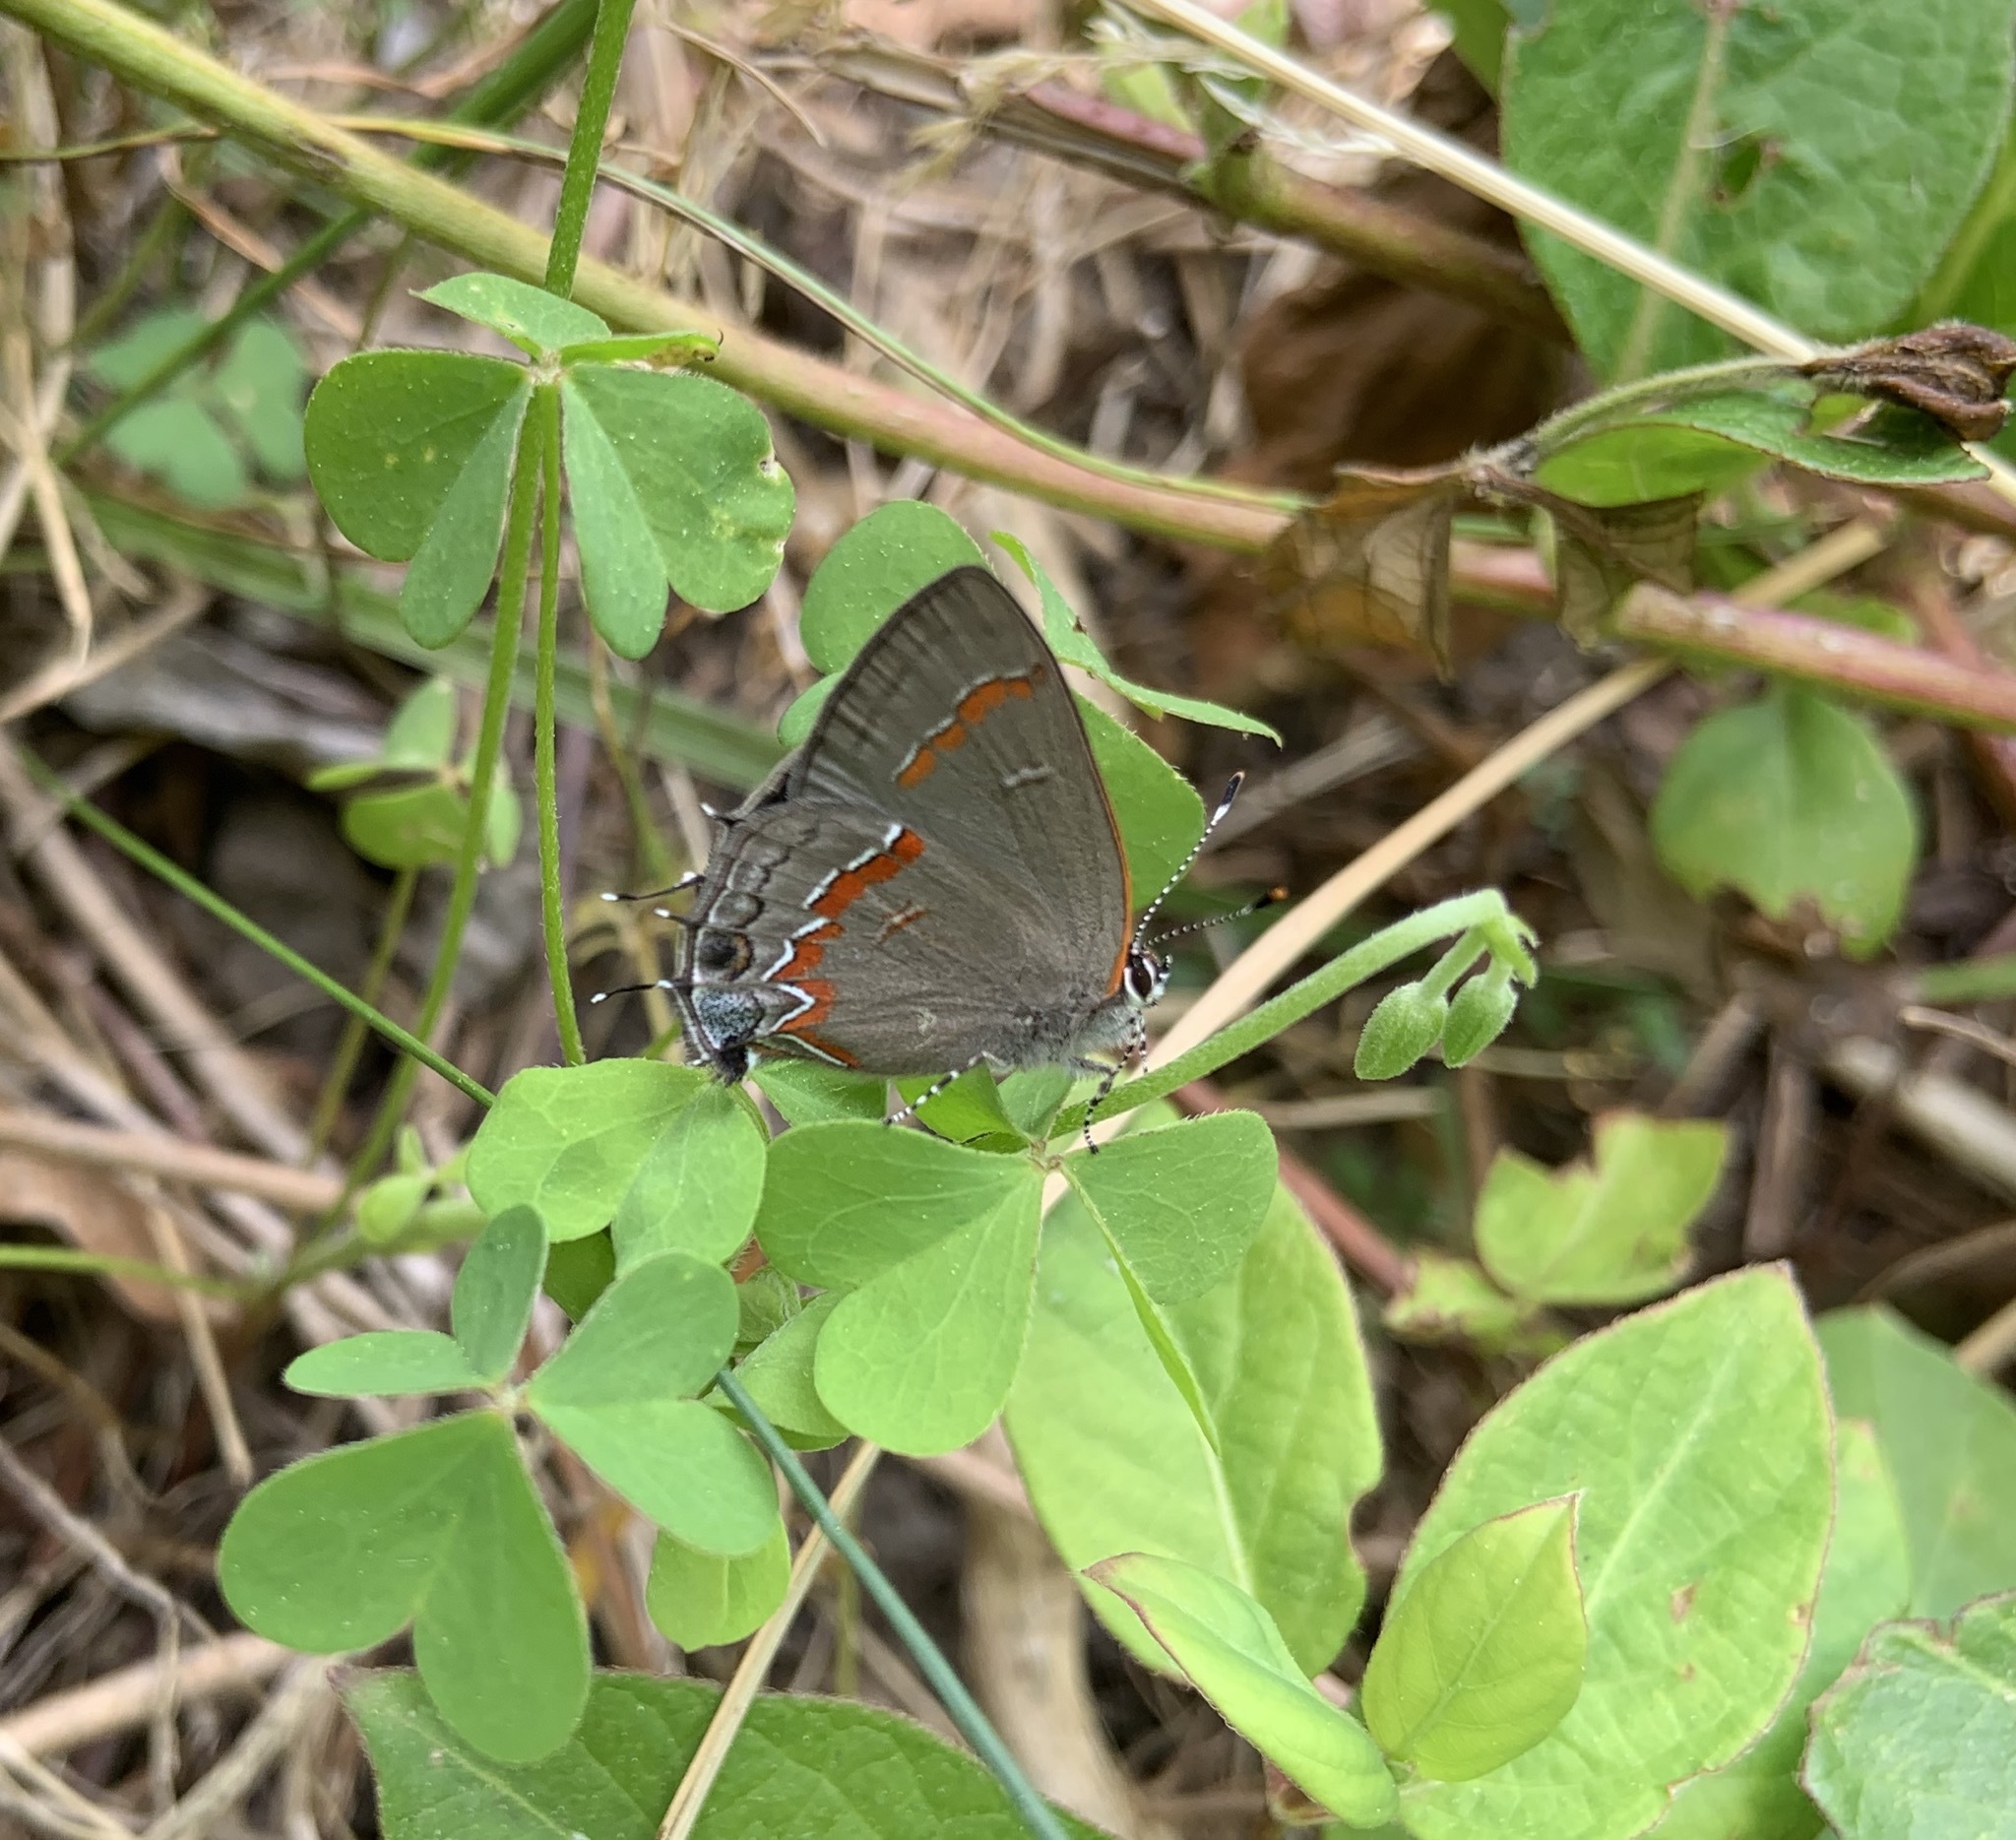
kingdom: Animalia
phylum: Arthropoda
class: Insecta
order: Lepidoptera
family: Lycaenidae
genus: Calycopis
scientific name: Calycopis cecrops
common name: Red-banded hairstreak
